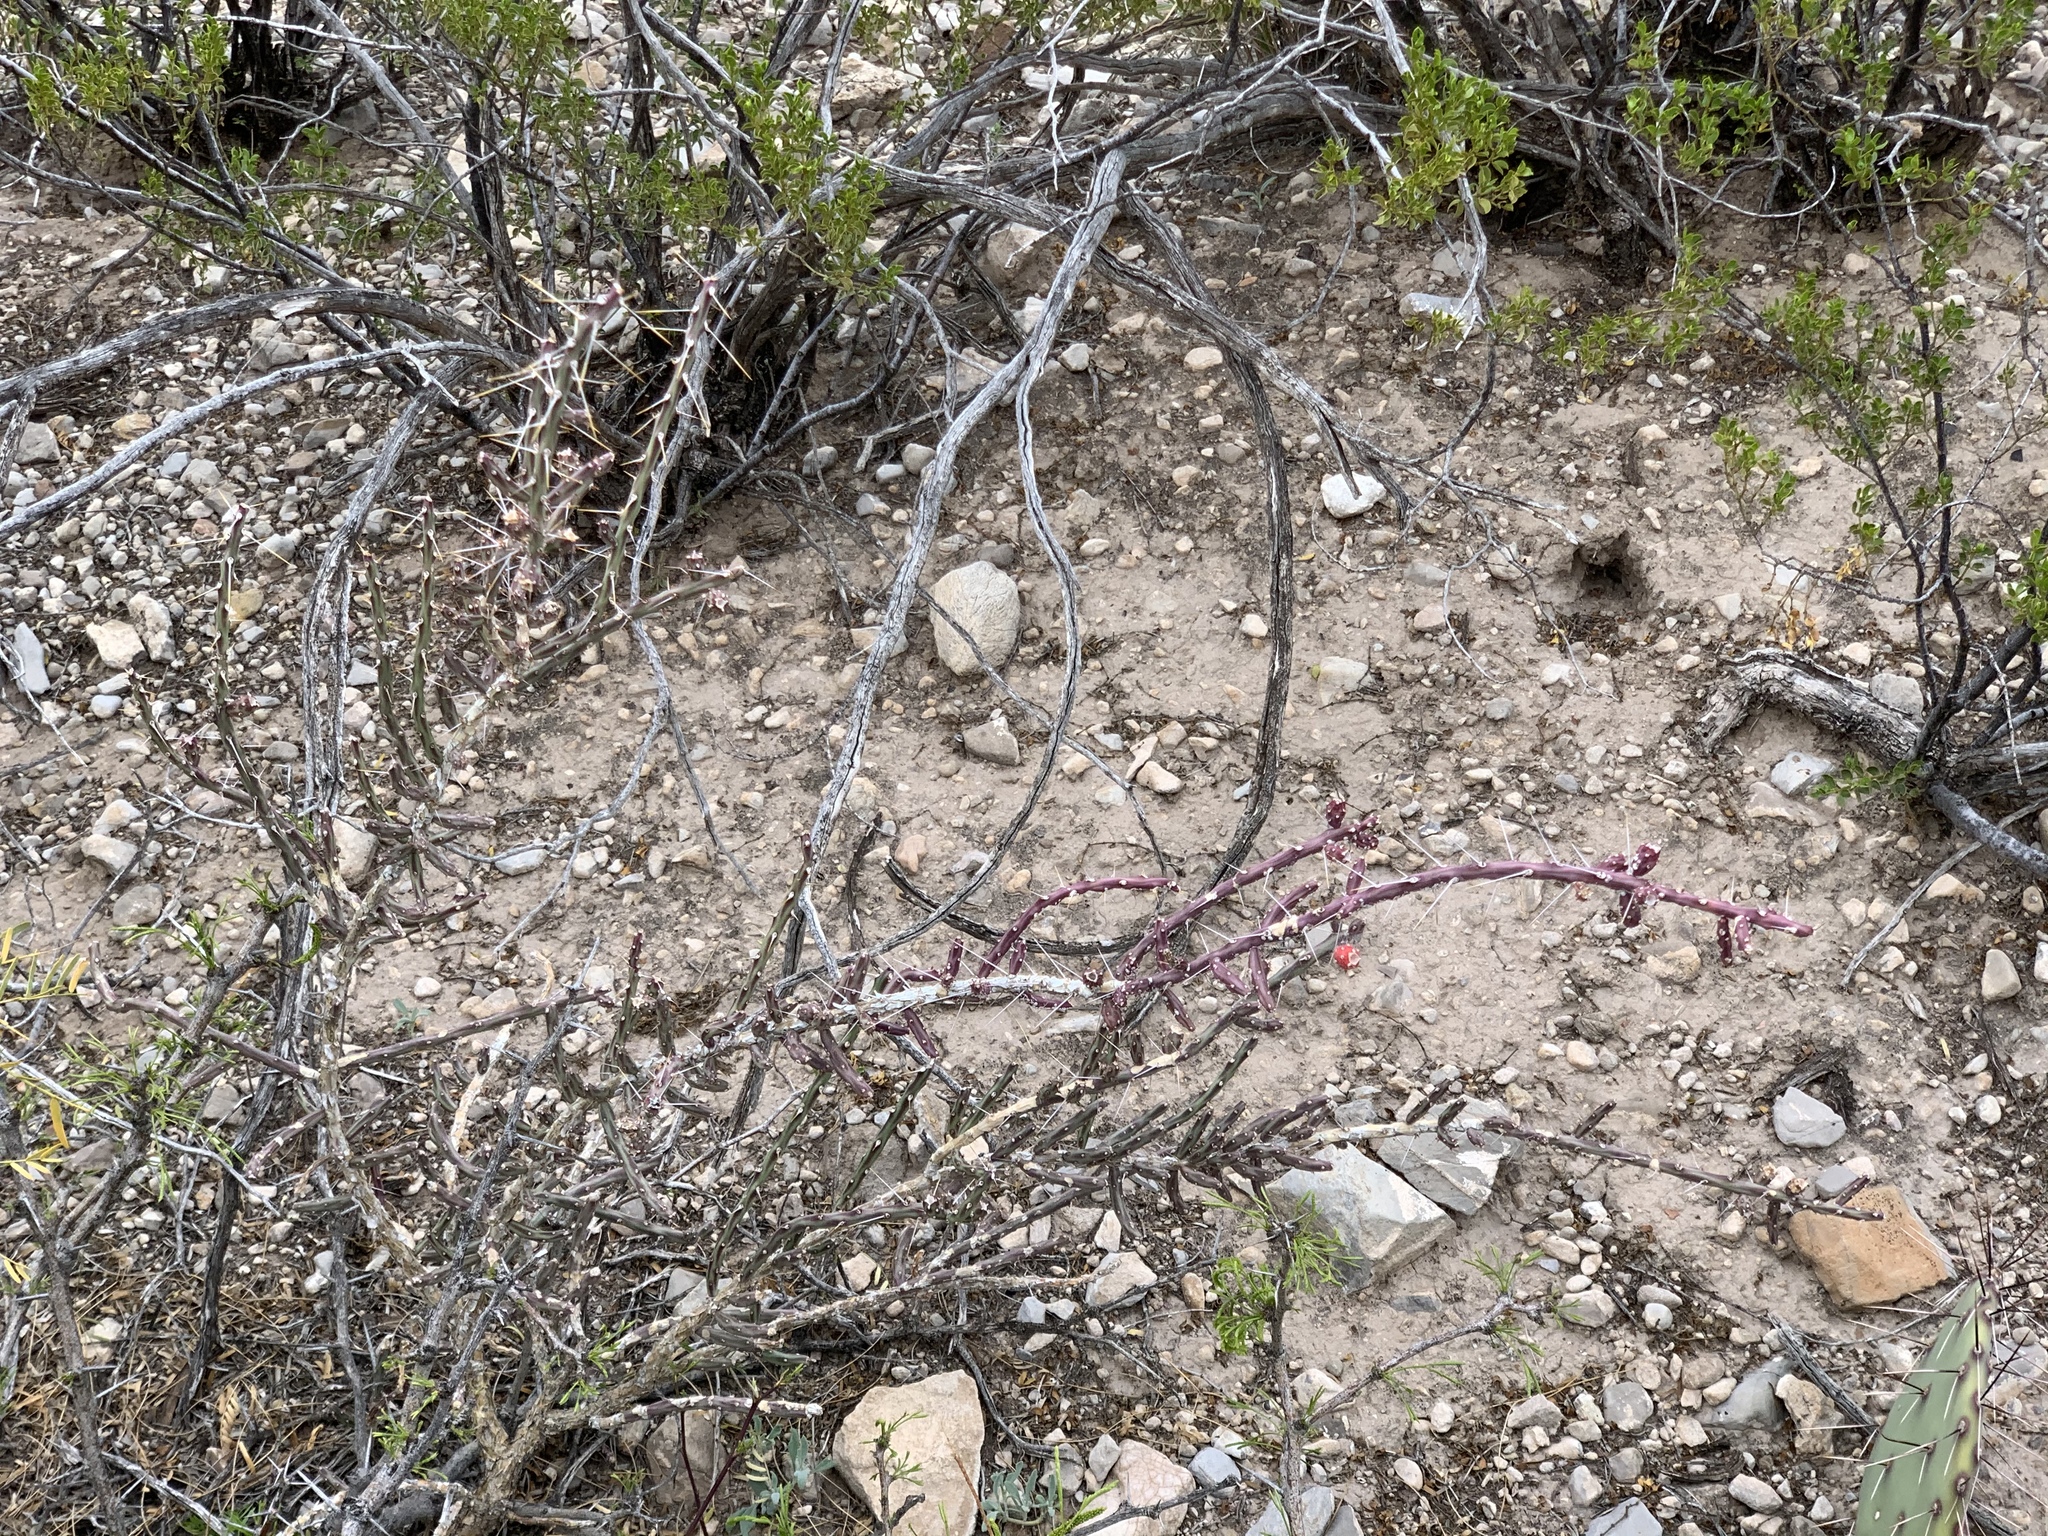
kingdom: Plantae
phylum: Tracheophyta
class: Magnoliopsida
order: Caryophyllales
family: Cactaceae
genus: Cylindropuntia
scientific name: Cylindropuntia leptocaulis
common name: Christmas cactus
